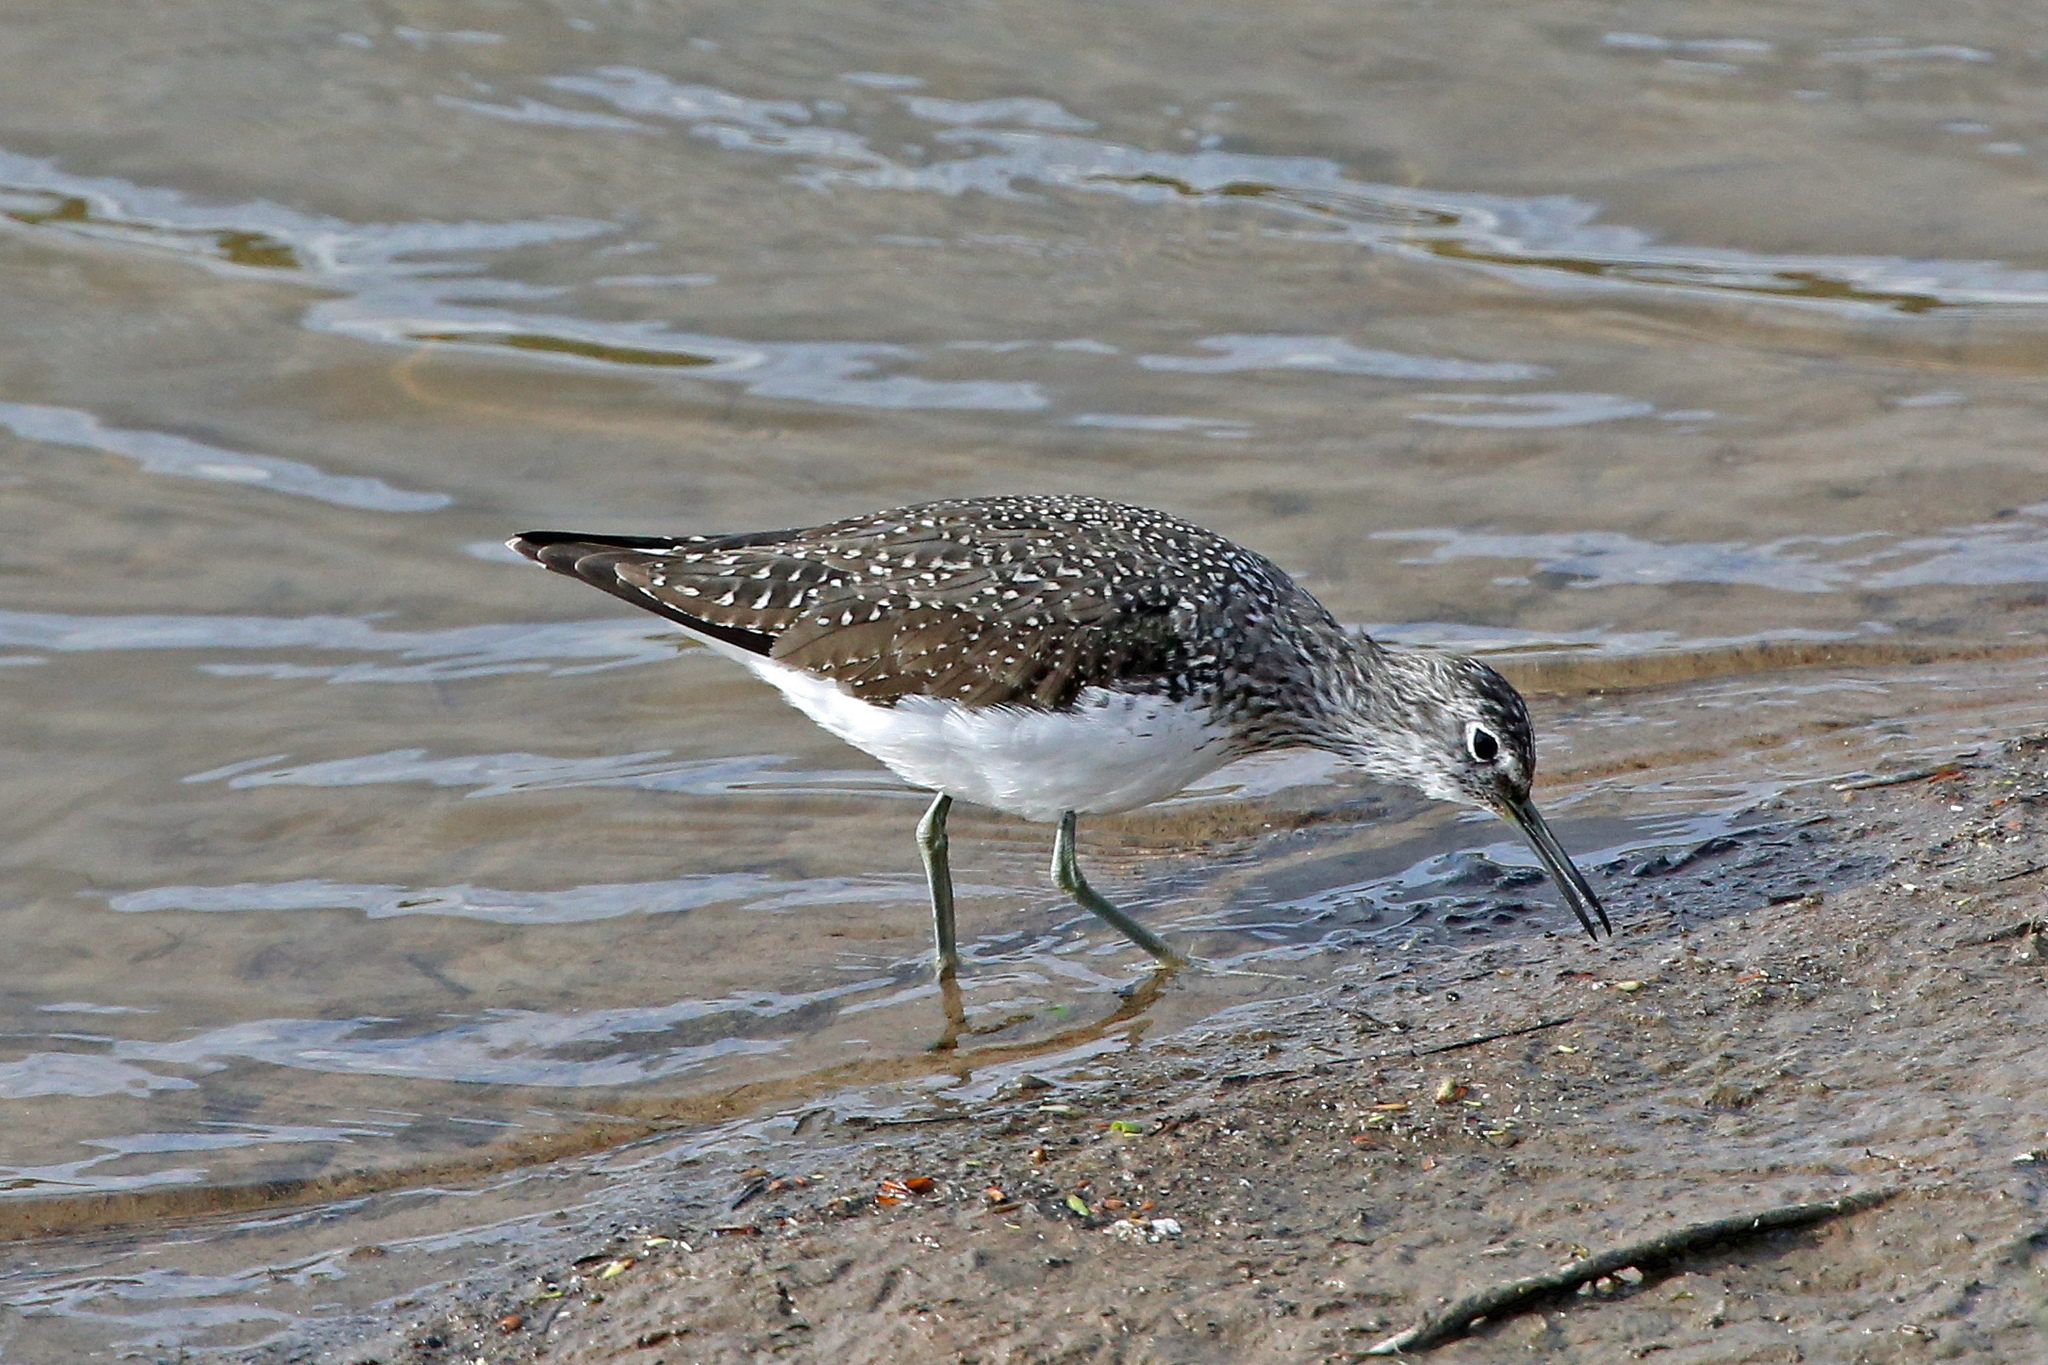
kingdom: Animalia
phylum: Chordata
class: Aves
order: Charadriiformes
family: Scolopacidae
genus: Tringa
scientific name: Tringa ochropus
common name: Green sandpiper
